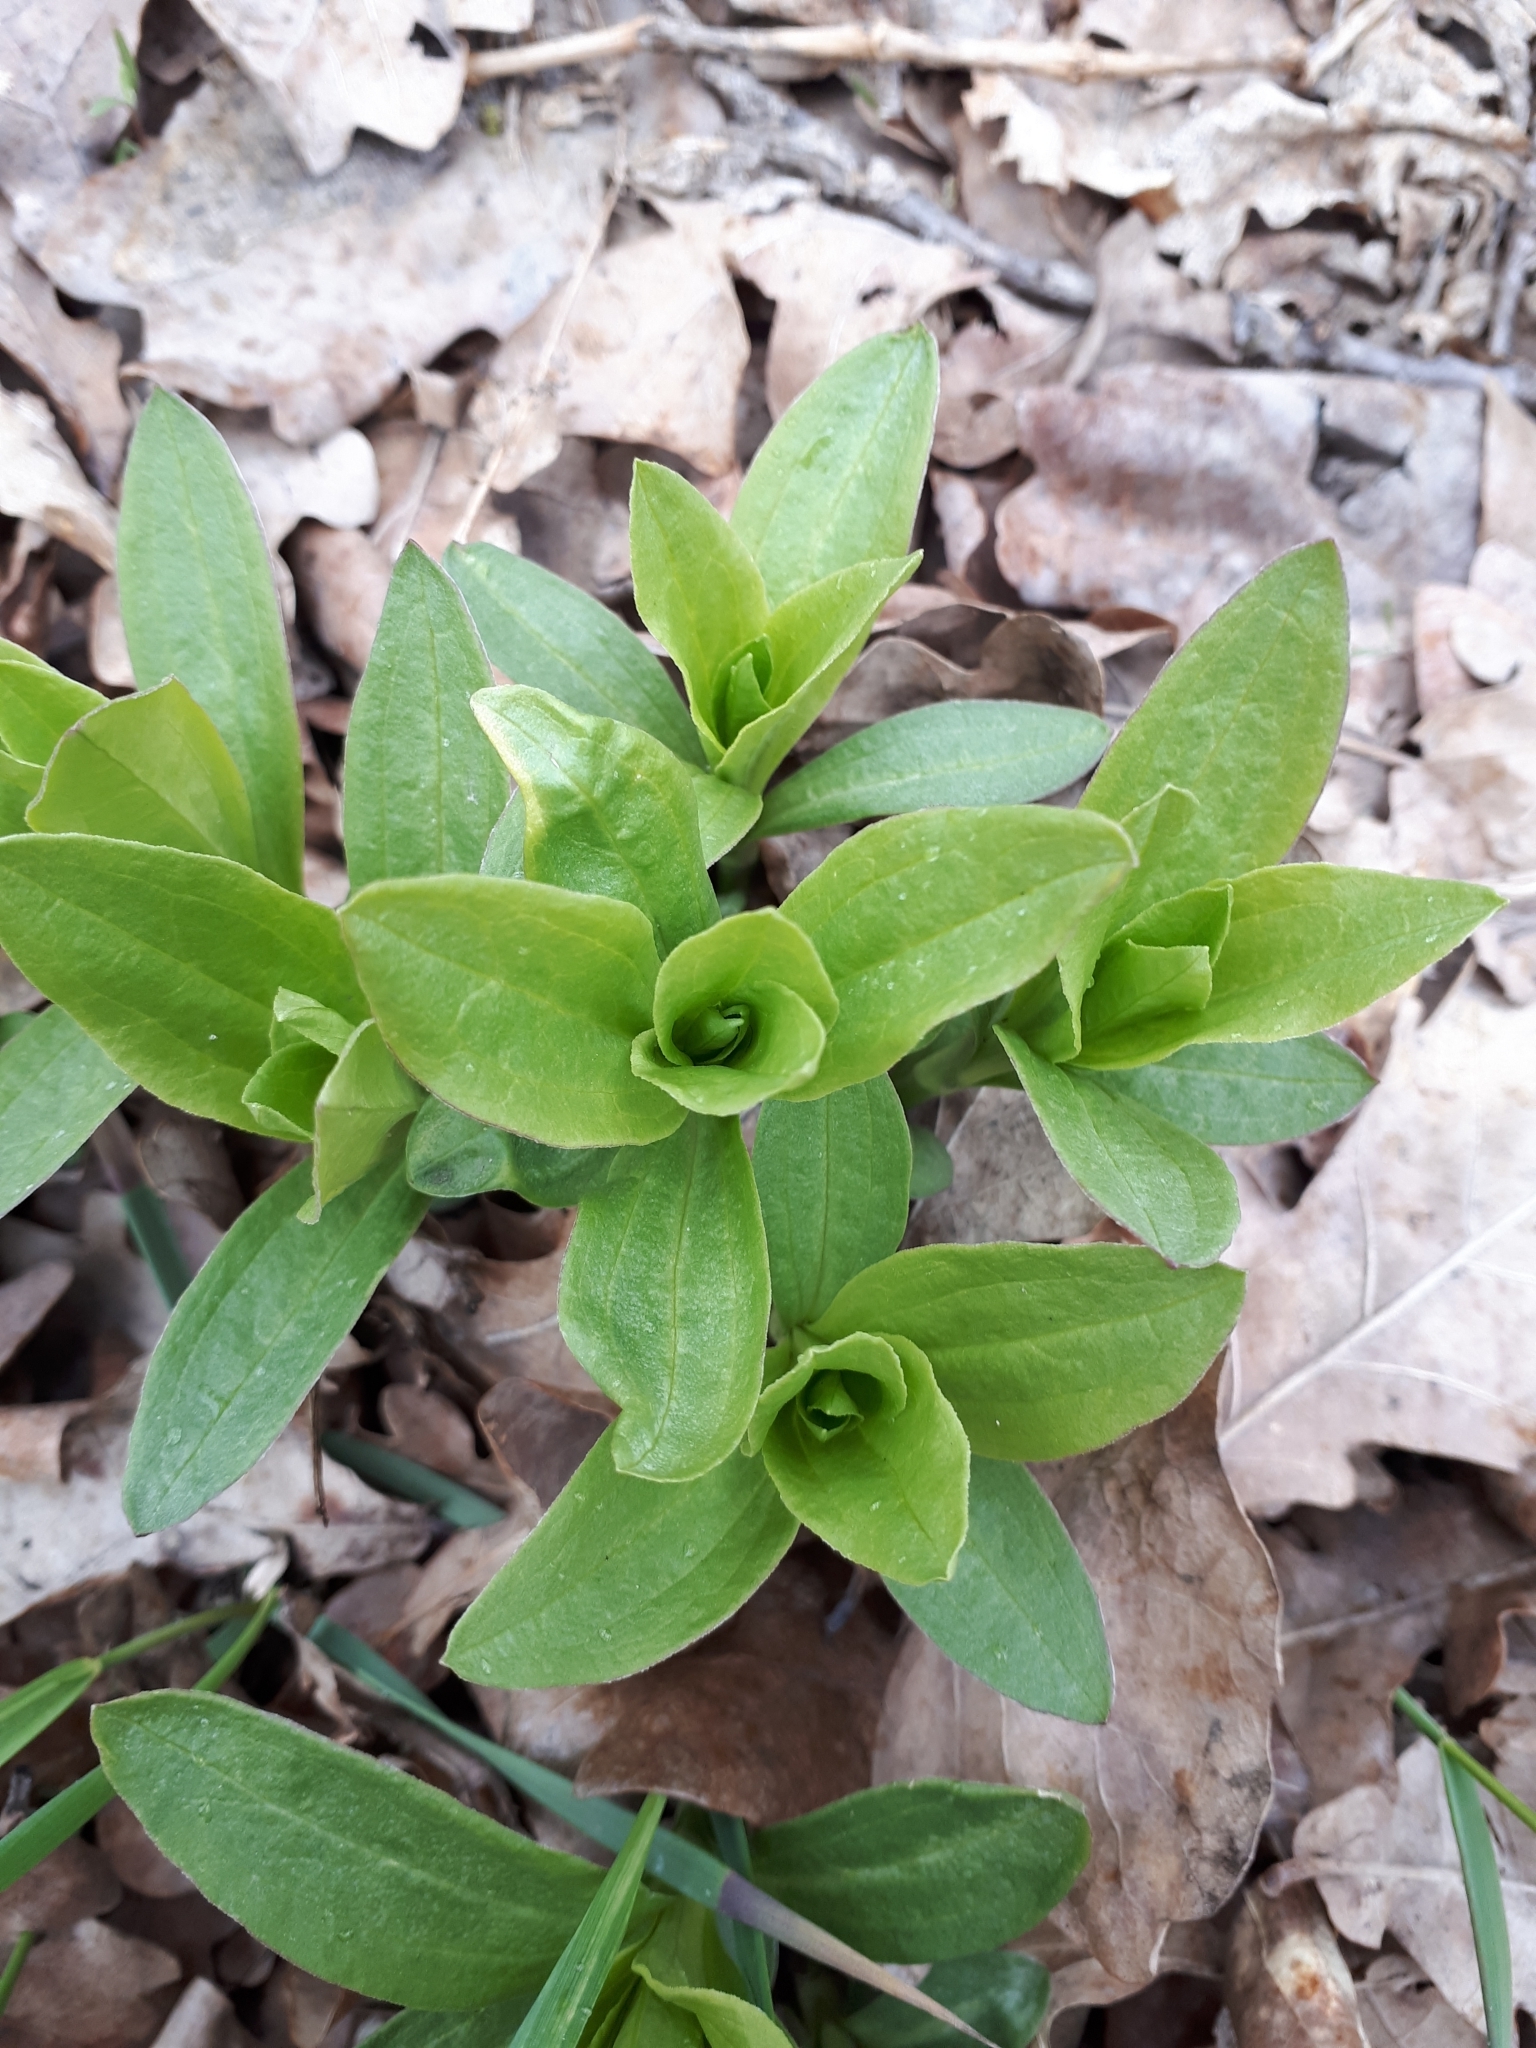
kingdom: Plantae
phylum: Tracheophyta
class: Magnoliopsida
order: Caryophyllales
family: Caryophyllaceae
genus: Saponaria
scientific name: Saponaria officinalis
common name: Soapwort
